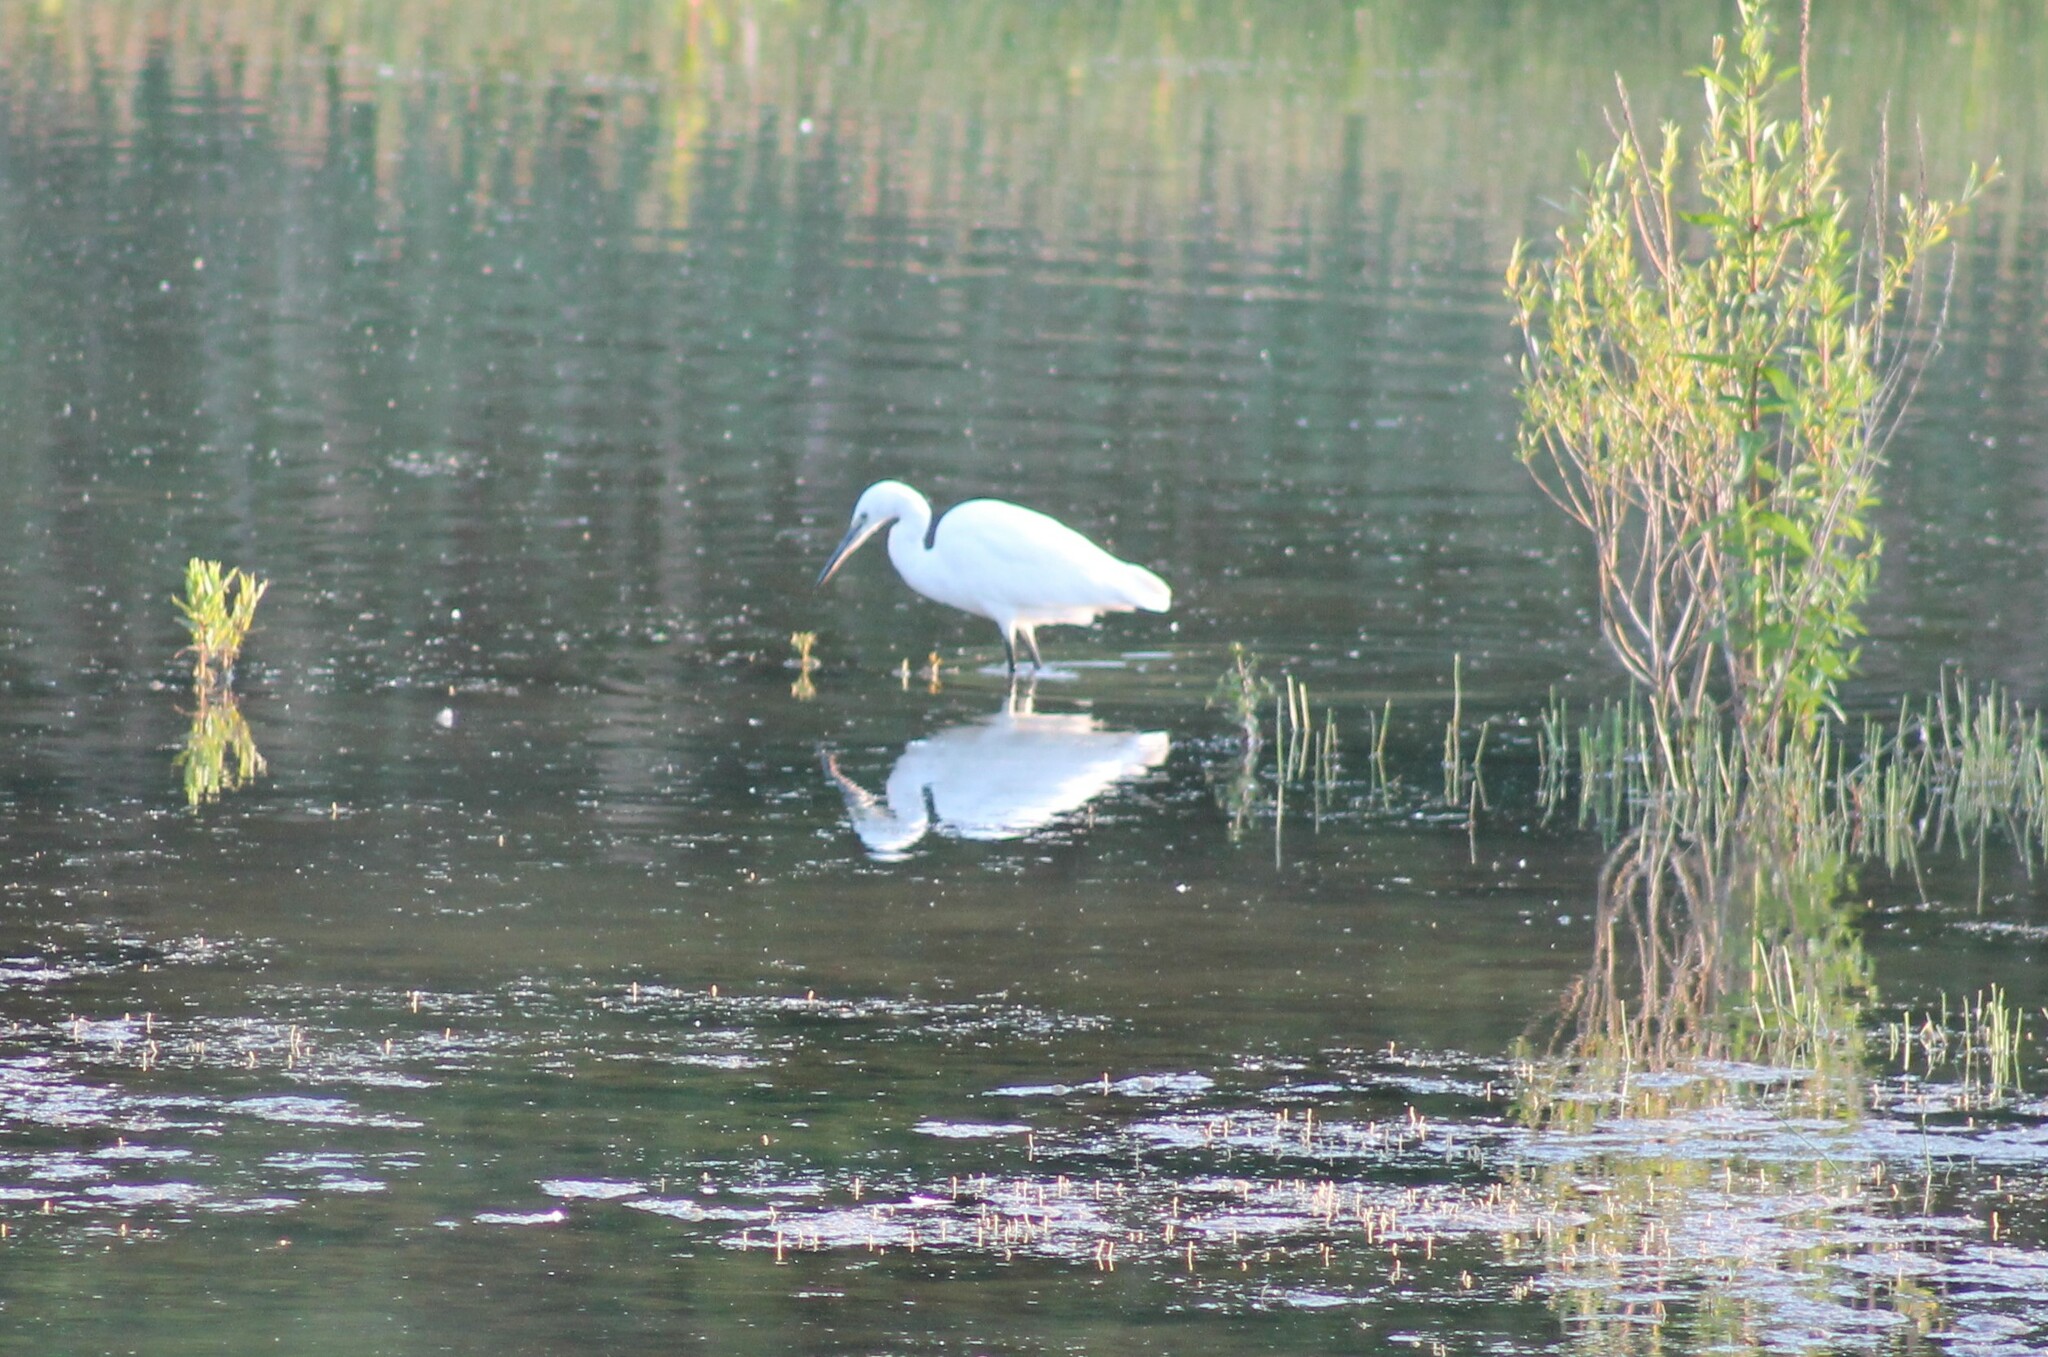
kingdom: Animalia
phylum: Chordata
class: Aves
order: Pelecaniformes
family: Ardeidae
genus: Egretta
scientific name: Egretta garzetta
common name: Little egret
